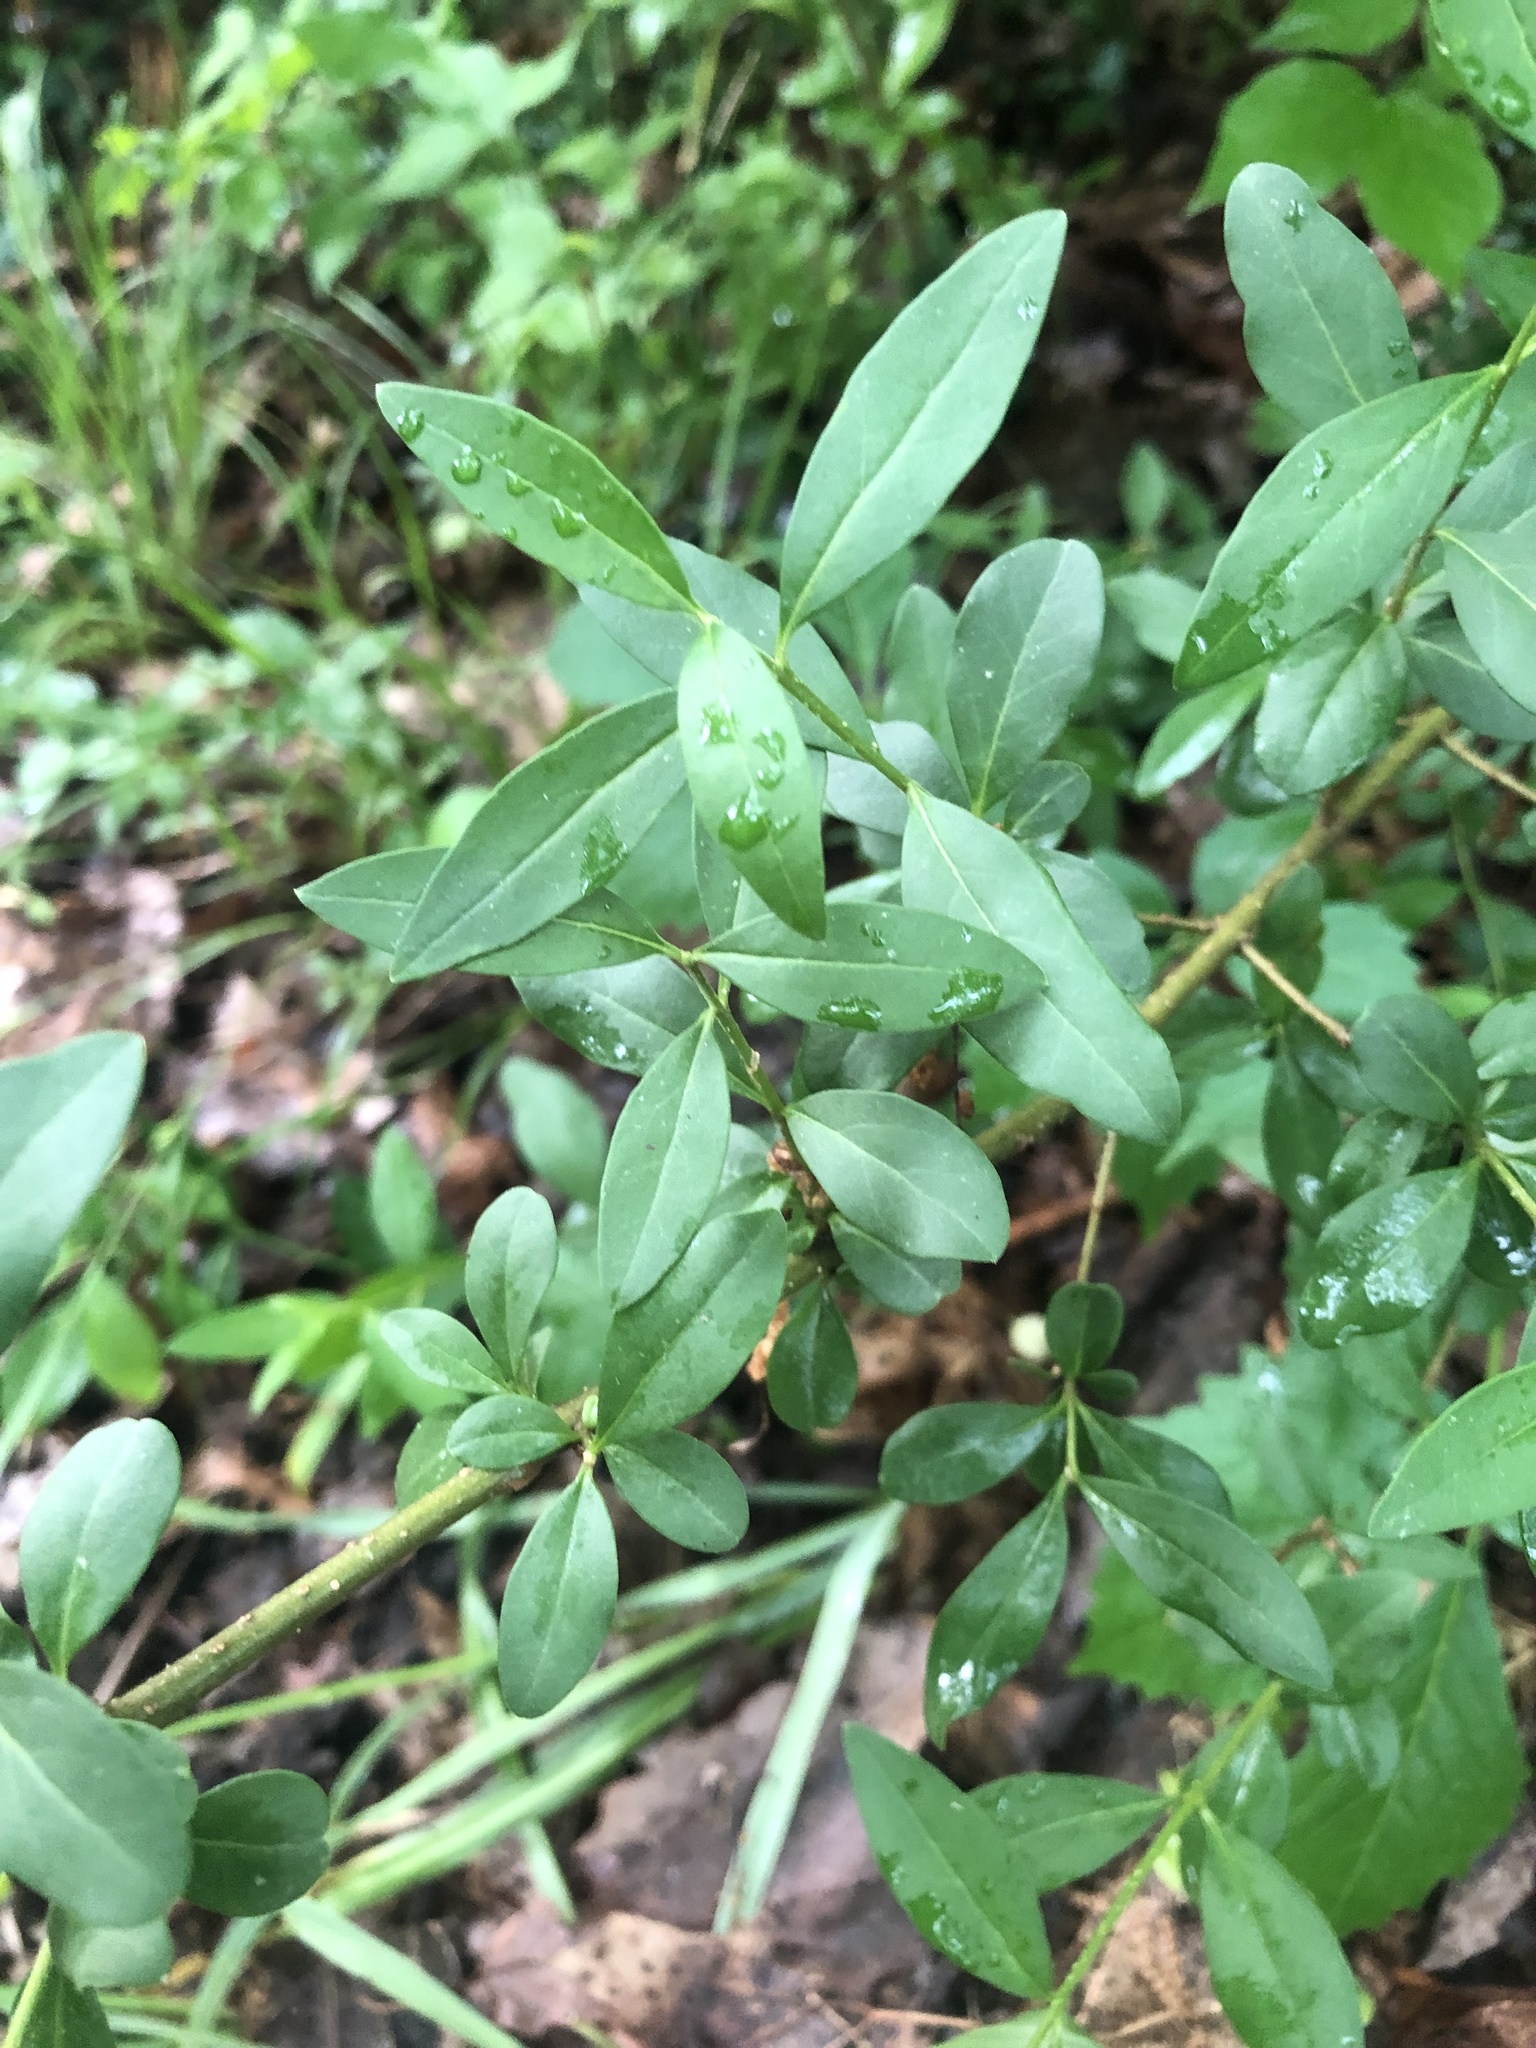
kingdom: Plantae
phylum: Tracheophyta
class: Magnoliopsida
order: Lamiales
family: Oleaceae
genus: Ligustrum
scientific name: Ligustrum vulgare
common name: Wild privet
